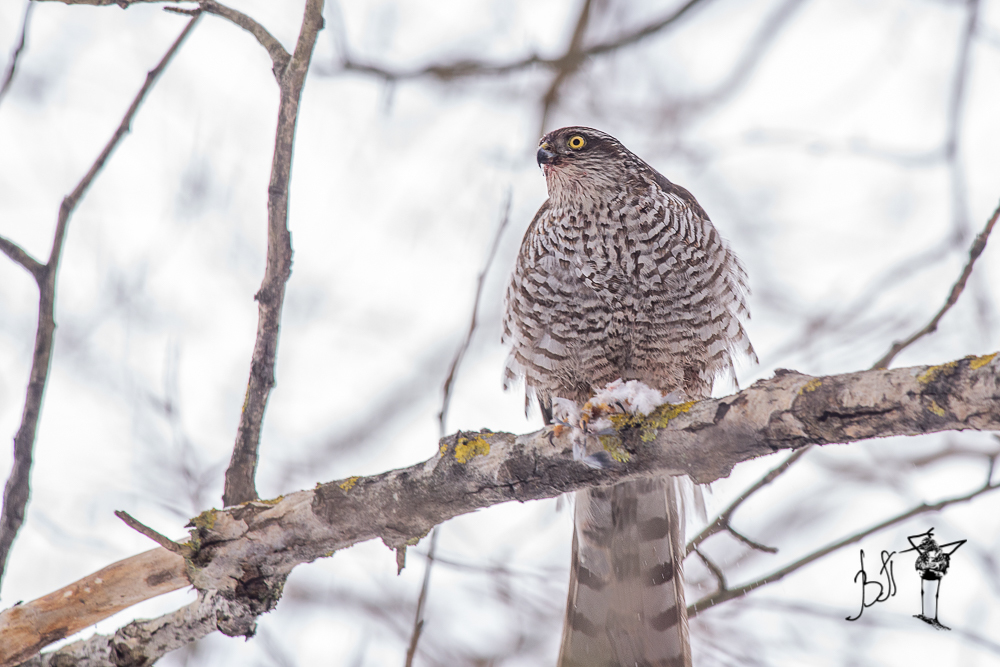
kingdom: Animalia
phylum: Chordata
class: Aves
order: Accipitriformes
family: Accipitridae
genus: Accipiter
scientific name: Accipiter nisus
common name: Eurasian sparrowhawk
